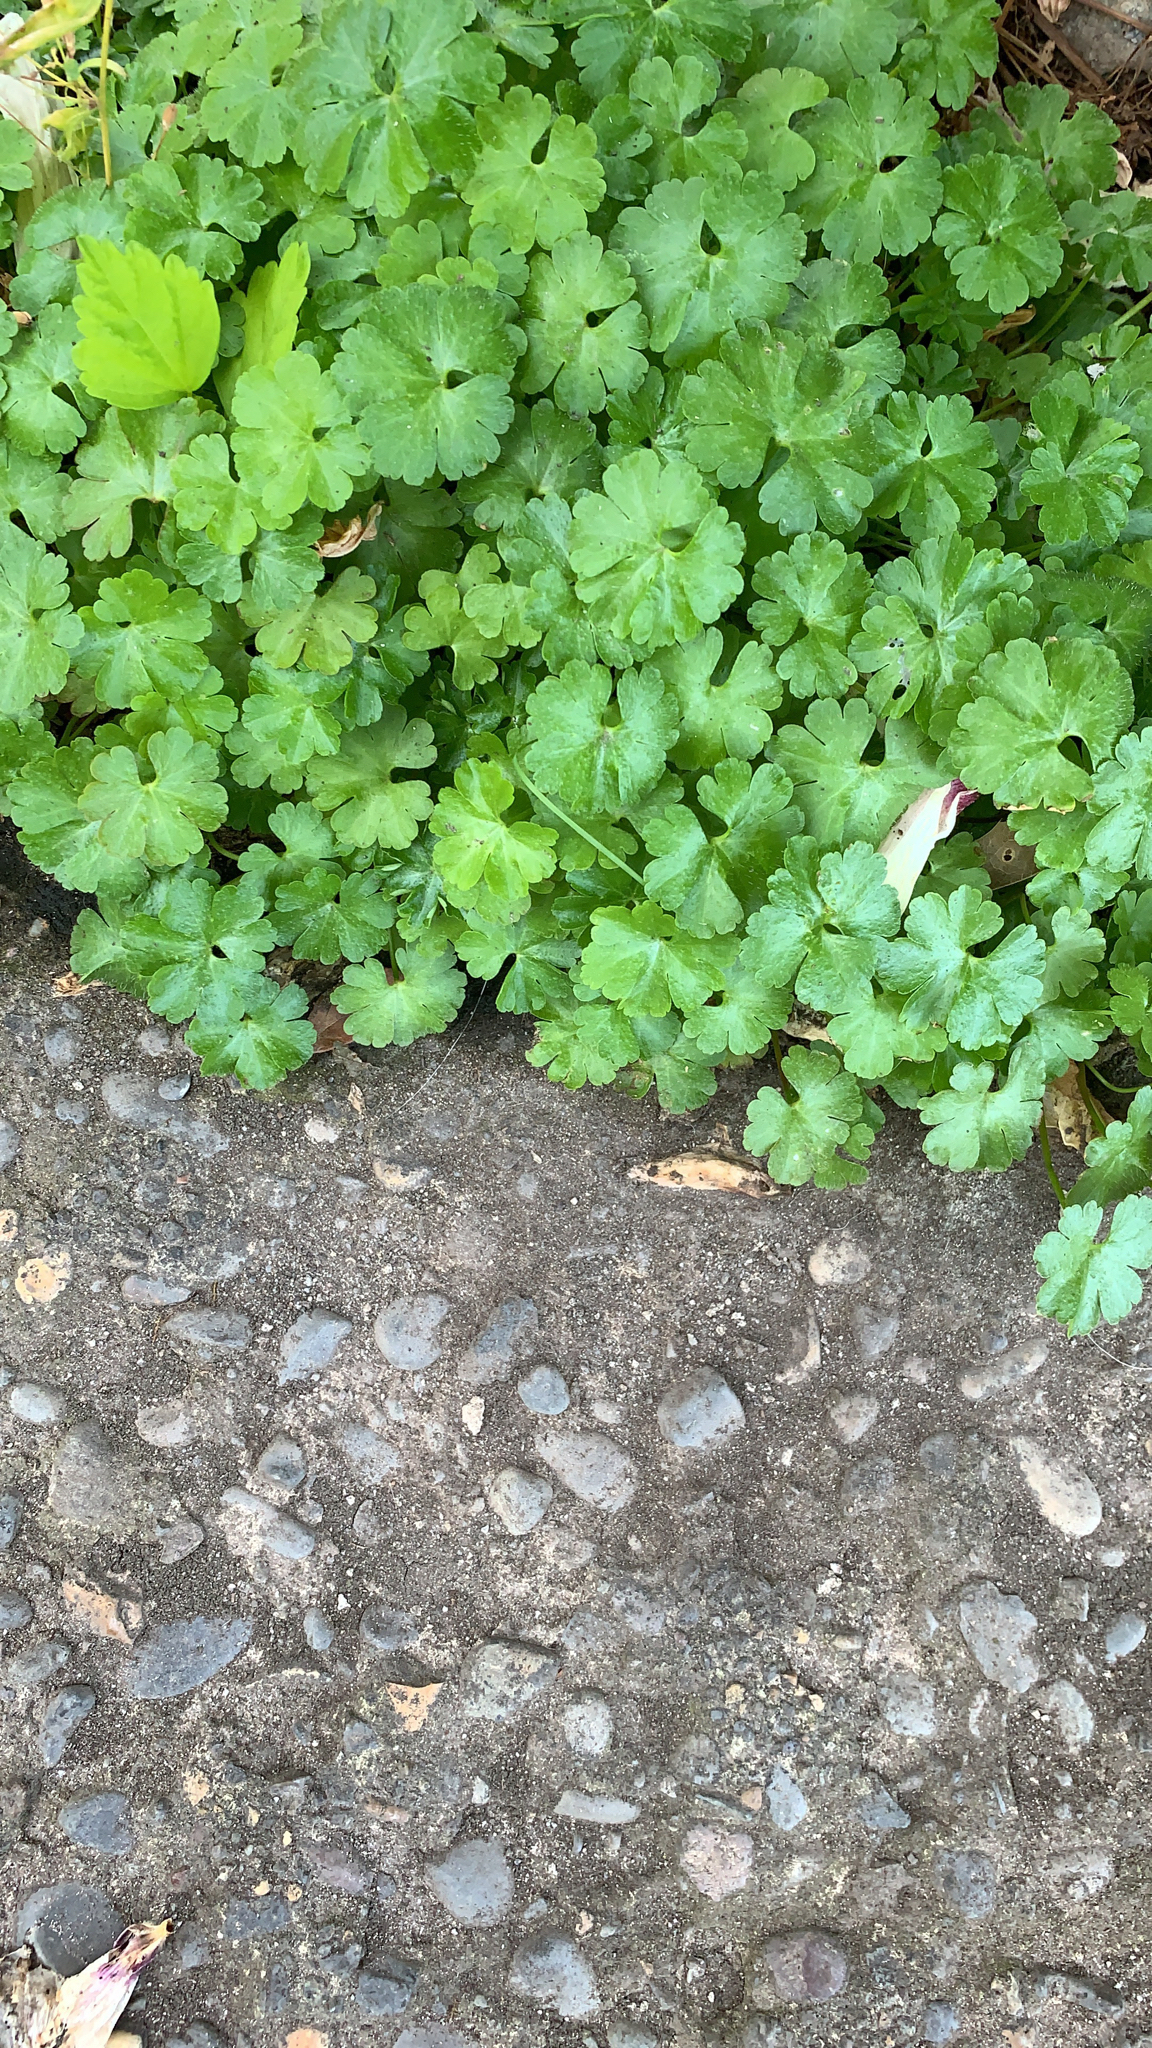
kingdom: Plantae
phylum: Tracheophyta
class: Magnoliopsida
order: Geraniales
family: Geraniaceae
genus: Geranium
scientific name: Geranium lucidum
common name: Shining crane's-bill
